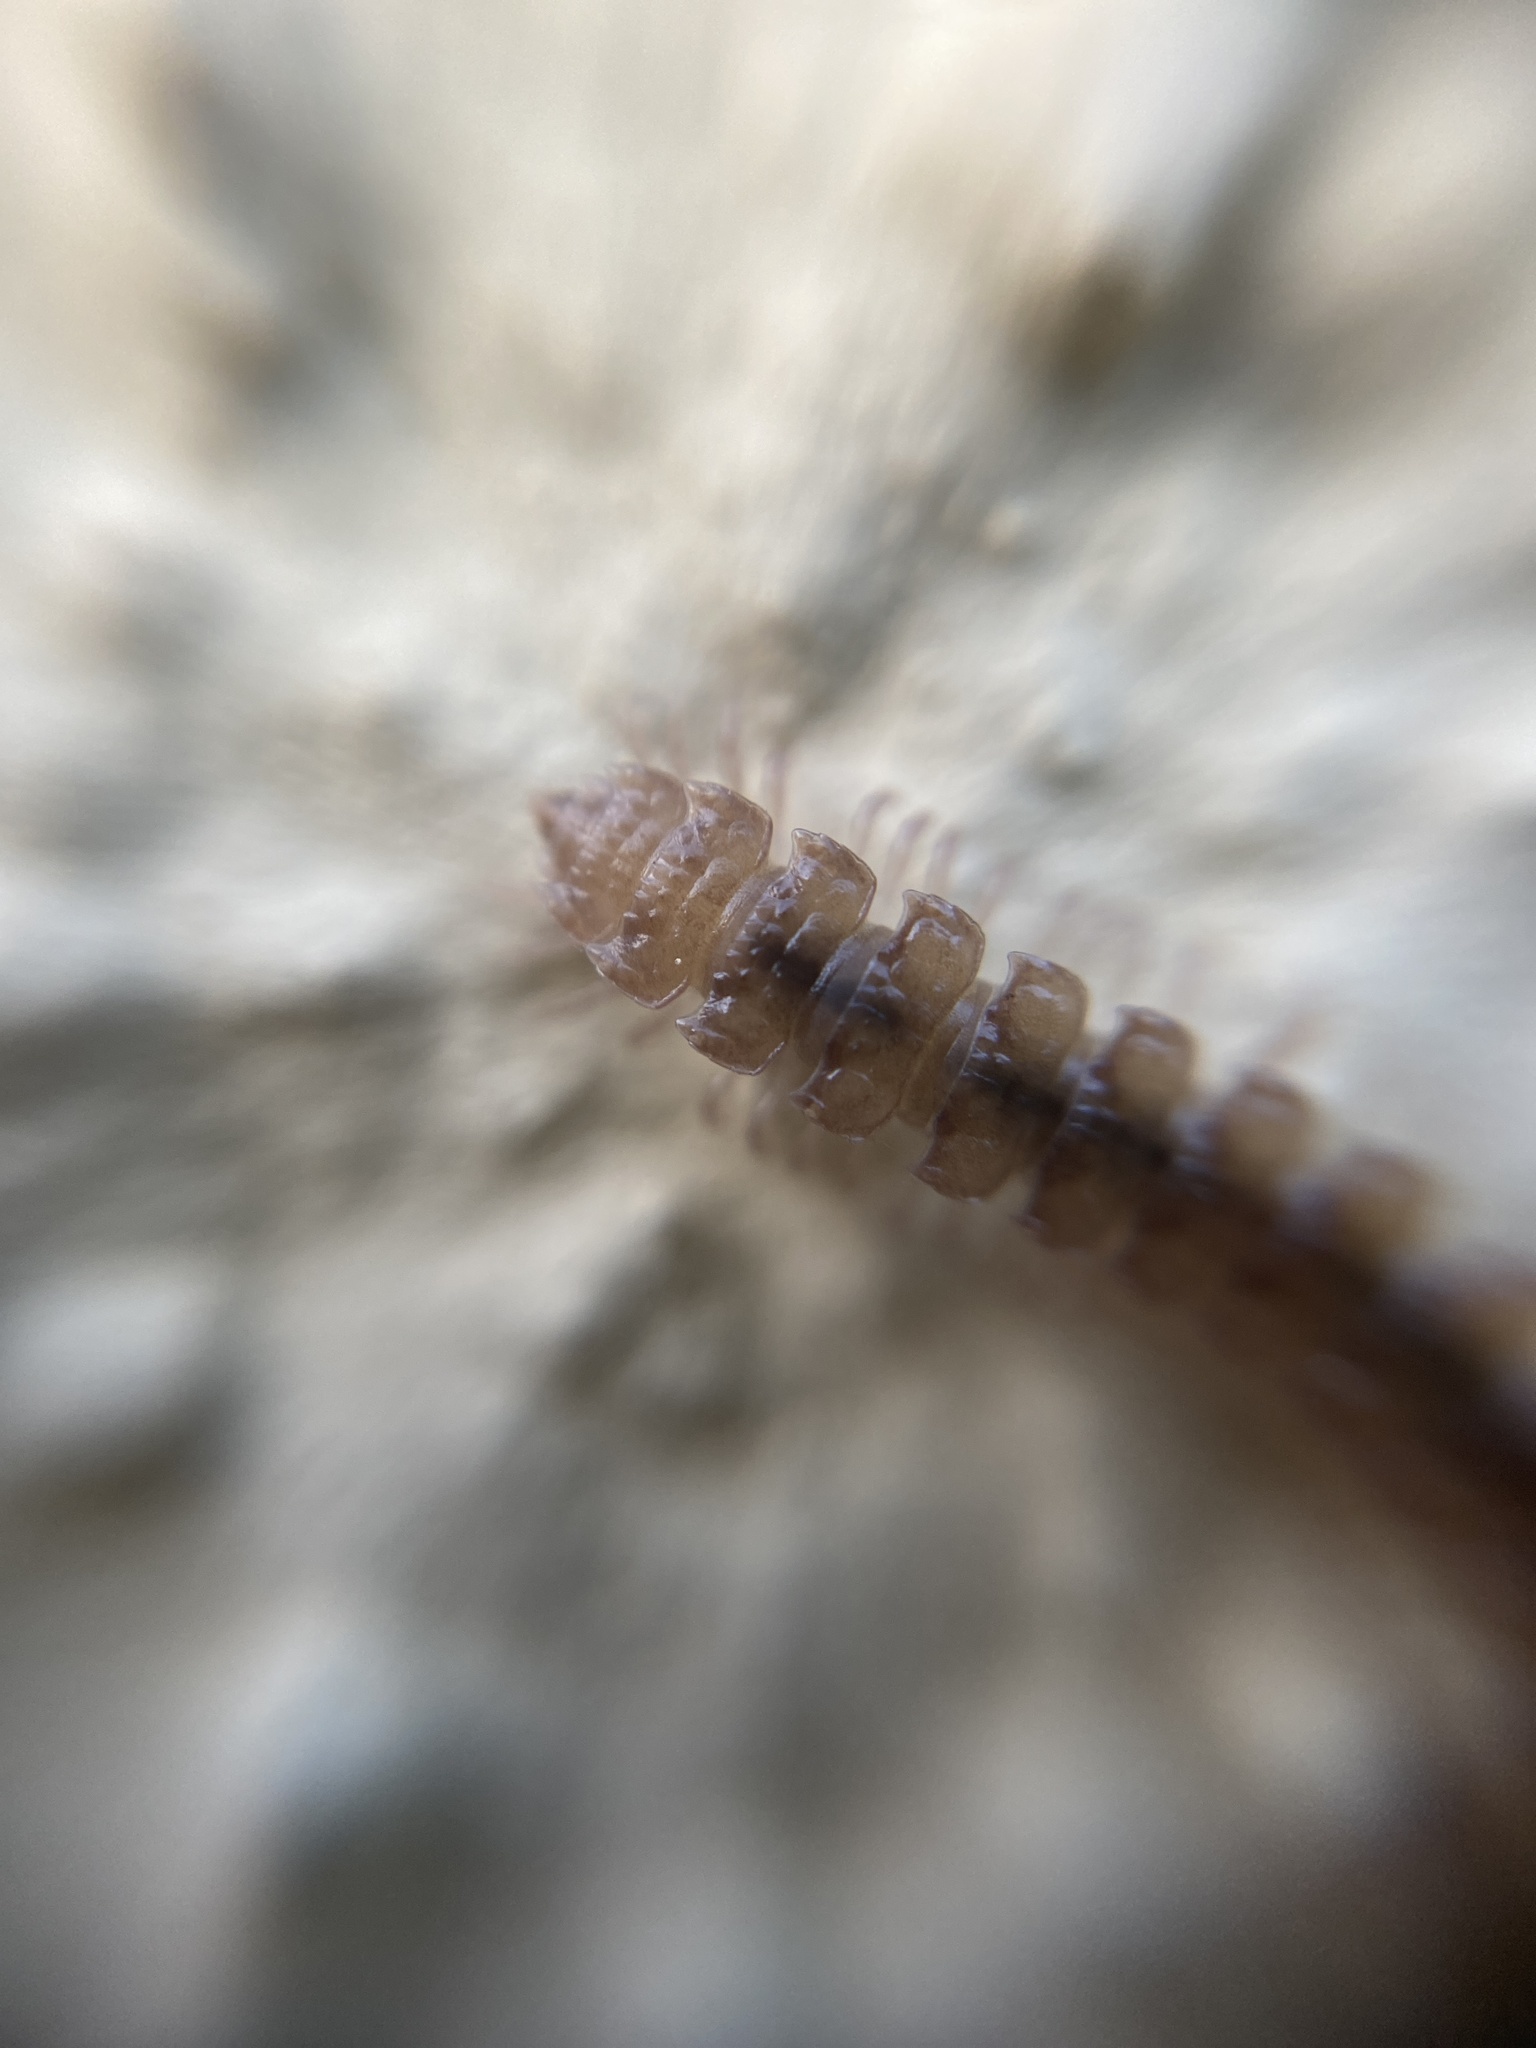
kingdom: Animalia
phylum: Arthropoda
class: Diplopoda
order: Polydesmida
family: Polydesmidae
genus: Polydesmus
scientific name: Polydesmus testaceus
